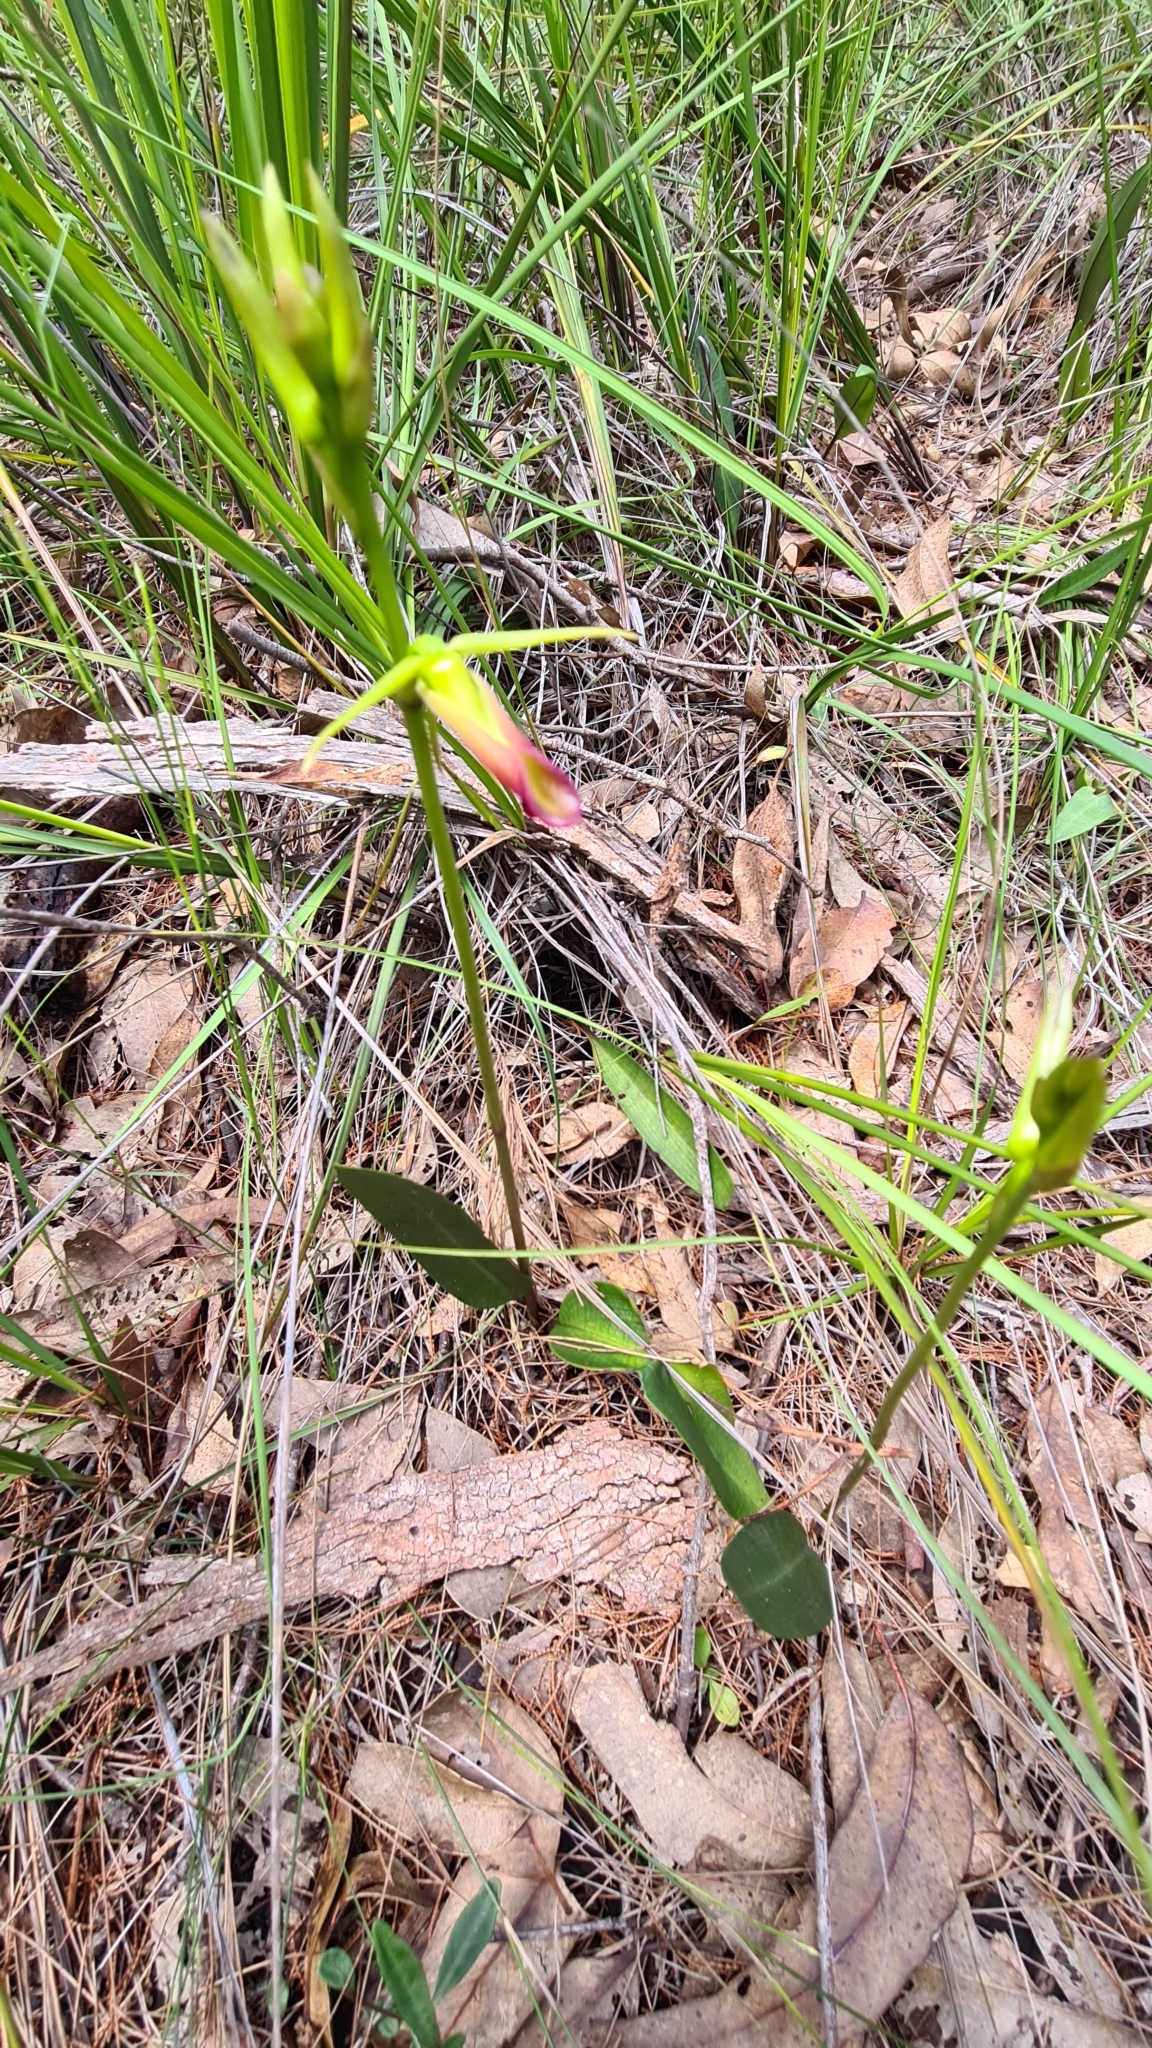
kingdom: Plantae
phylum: Tracheophyta
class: Liliopsida
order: Asparagales
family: Orchidaceae
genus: Cryptostylis
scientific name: Cryptostylis subulata
